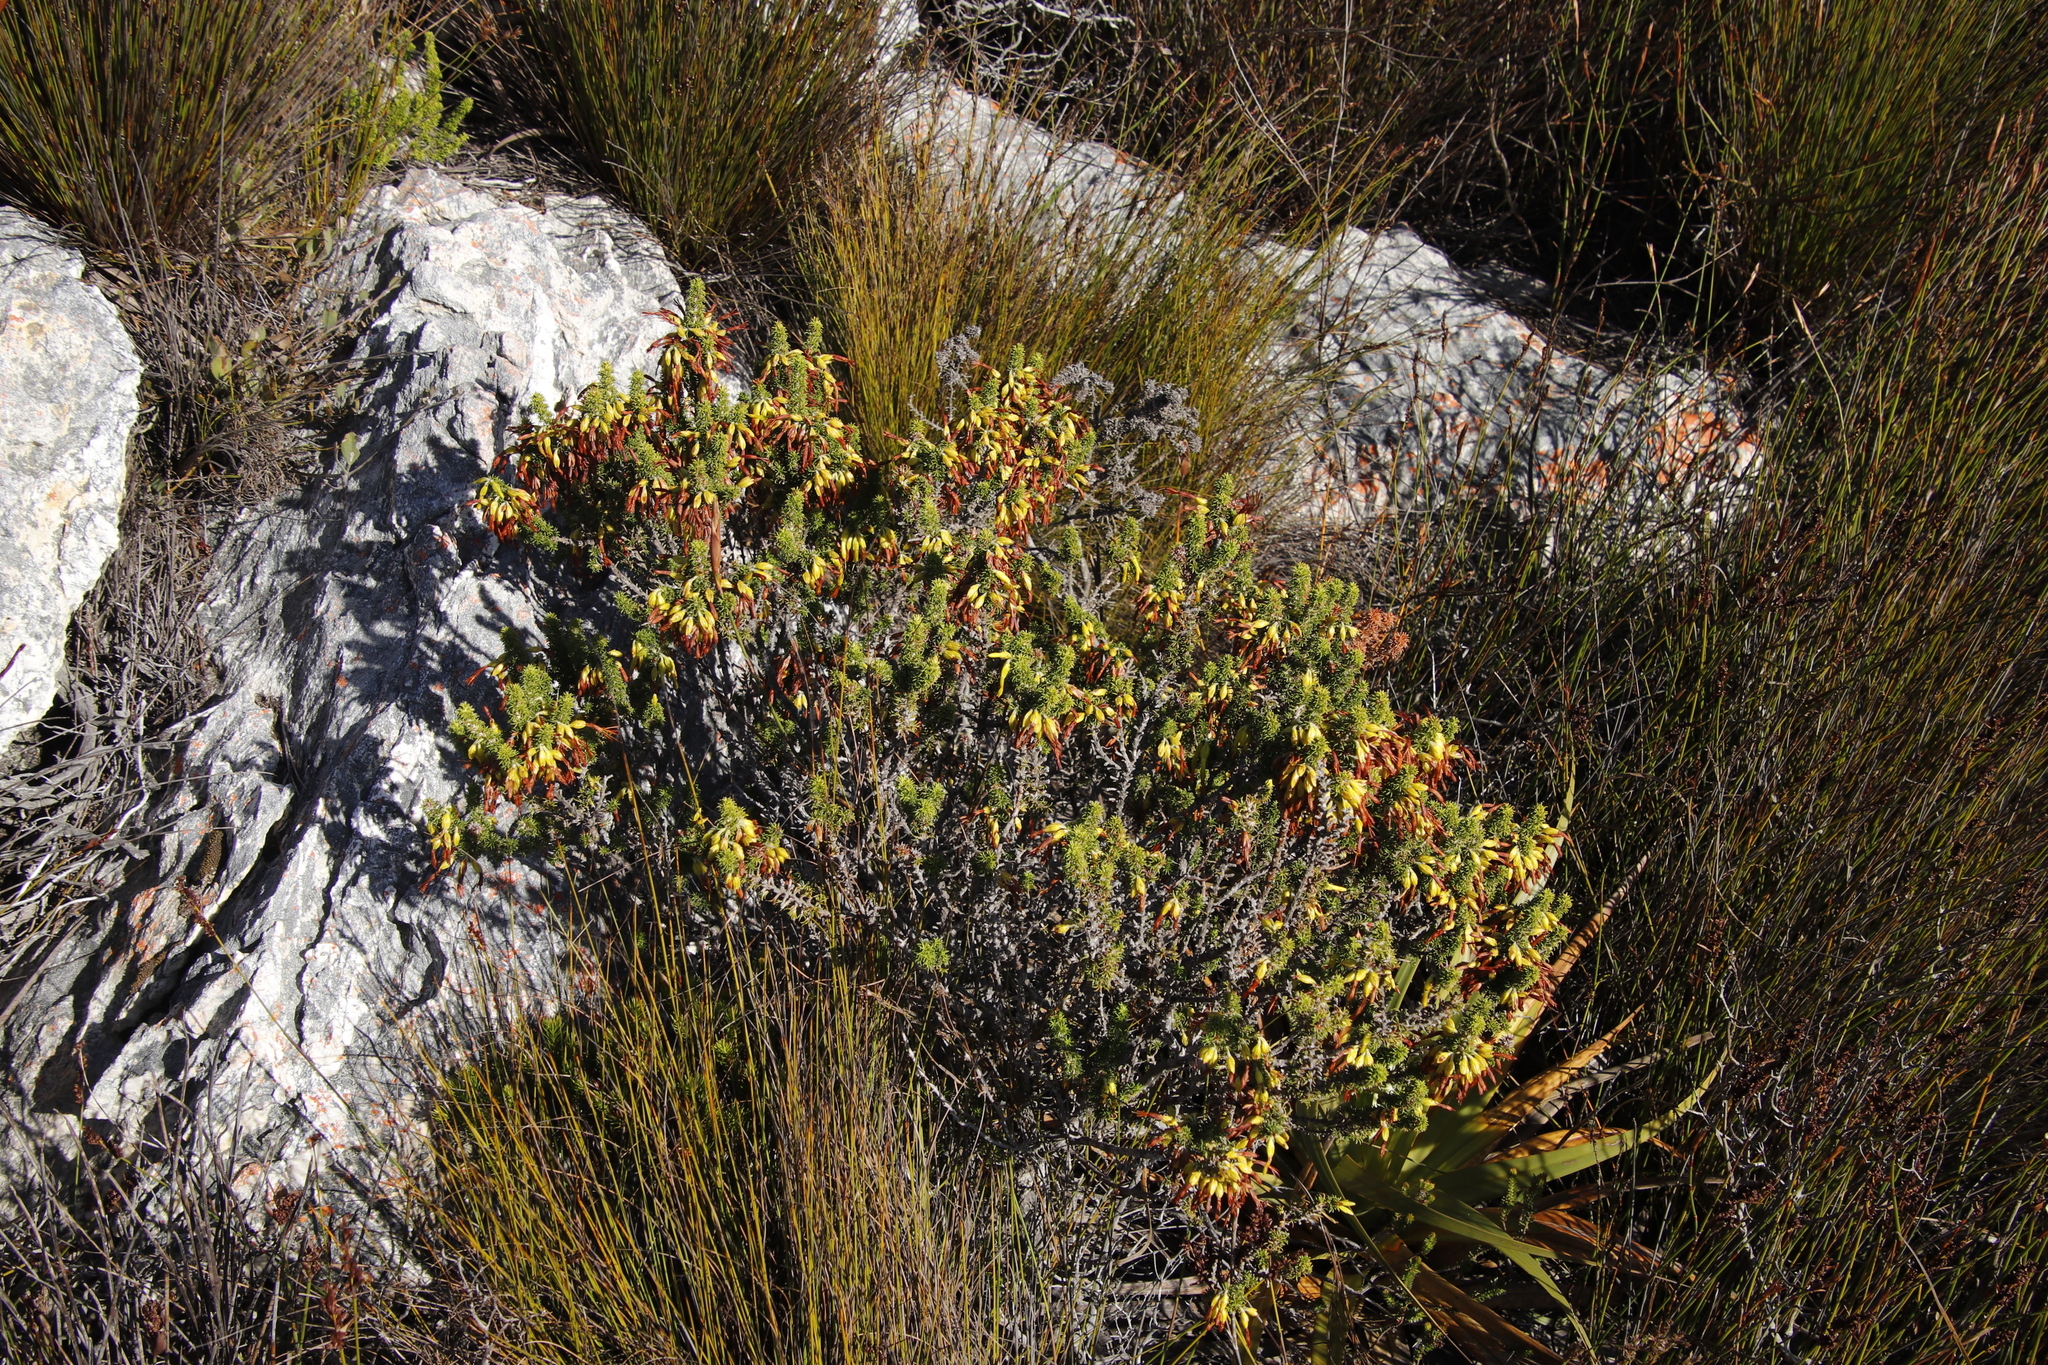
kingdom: Plantae
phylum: Tracheophyta
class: Magnoliopsida
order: Ericales
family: Ericaceae
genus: Erica
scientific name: Erica coccinea
